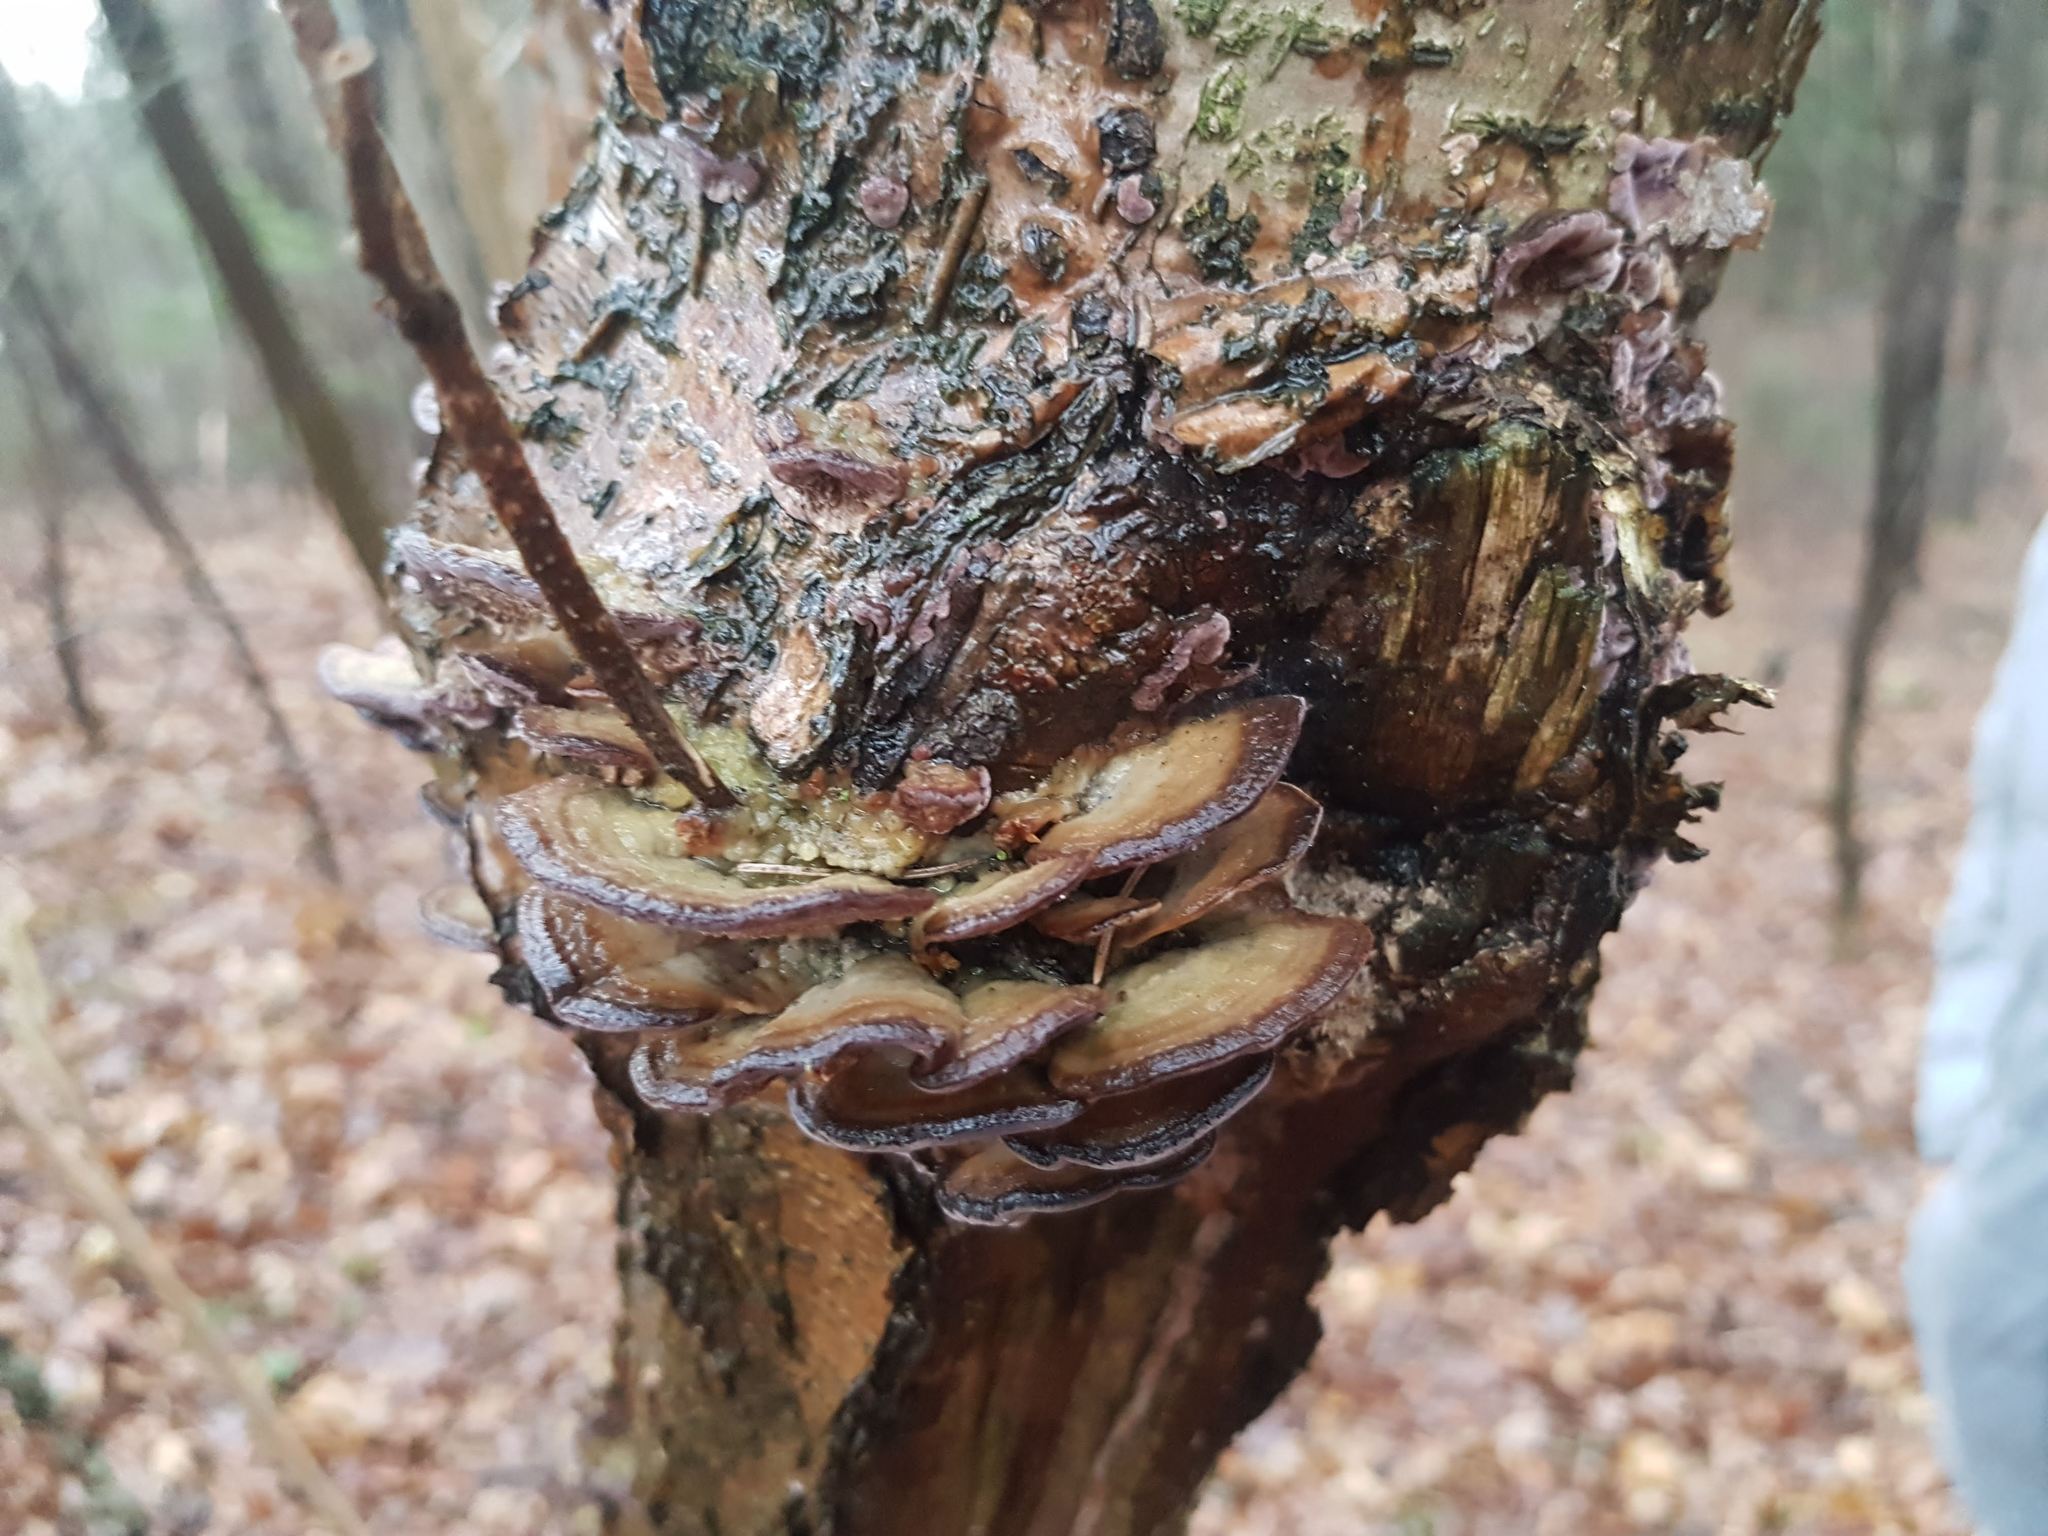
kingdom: Fungi
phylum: Basidiomycota
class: Agaricomycetes
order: Hymenochaetales
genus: Trichaptum
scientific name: Trichaptum biforme
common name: Violet-toothed polypore
